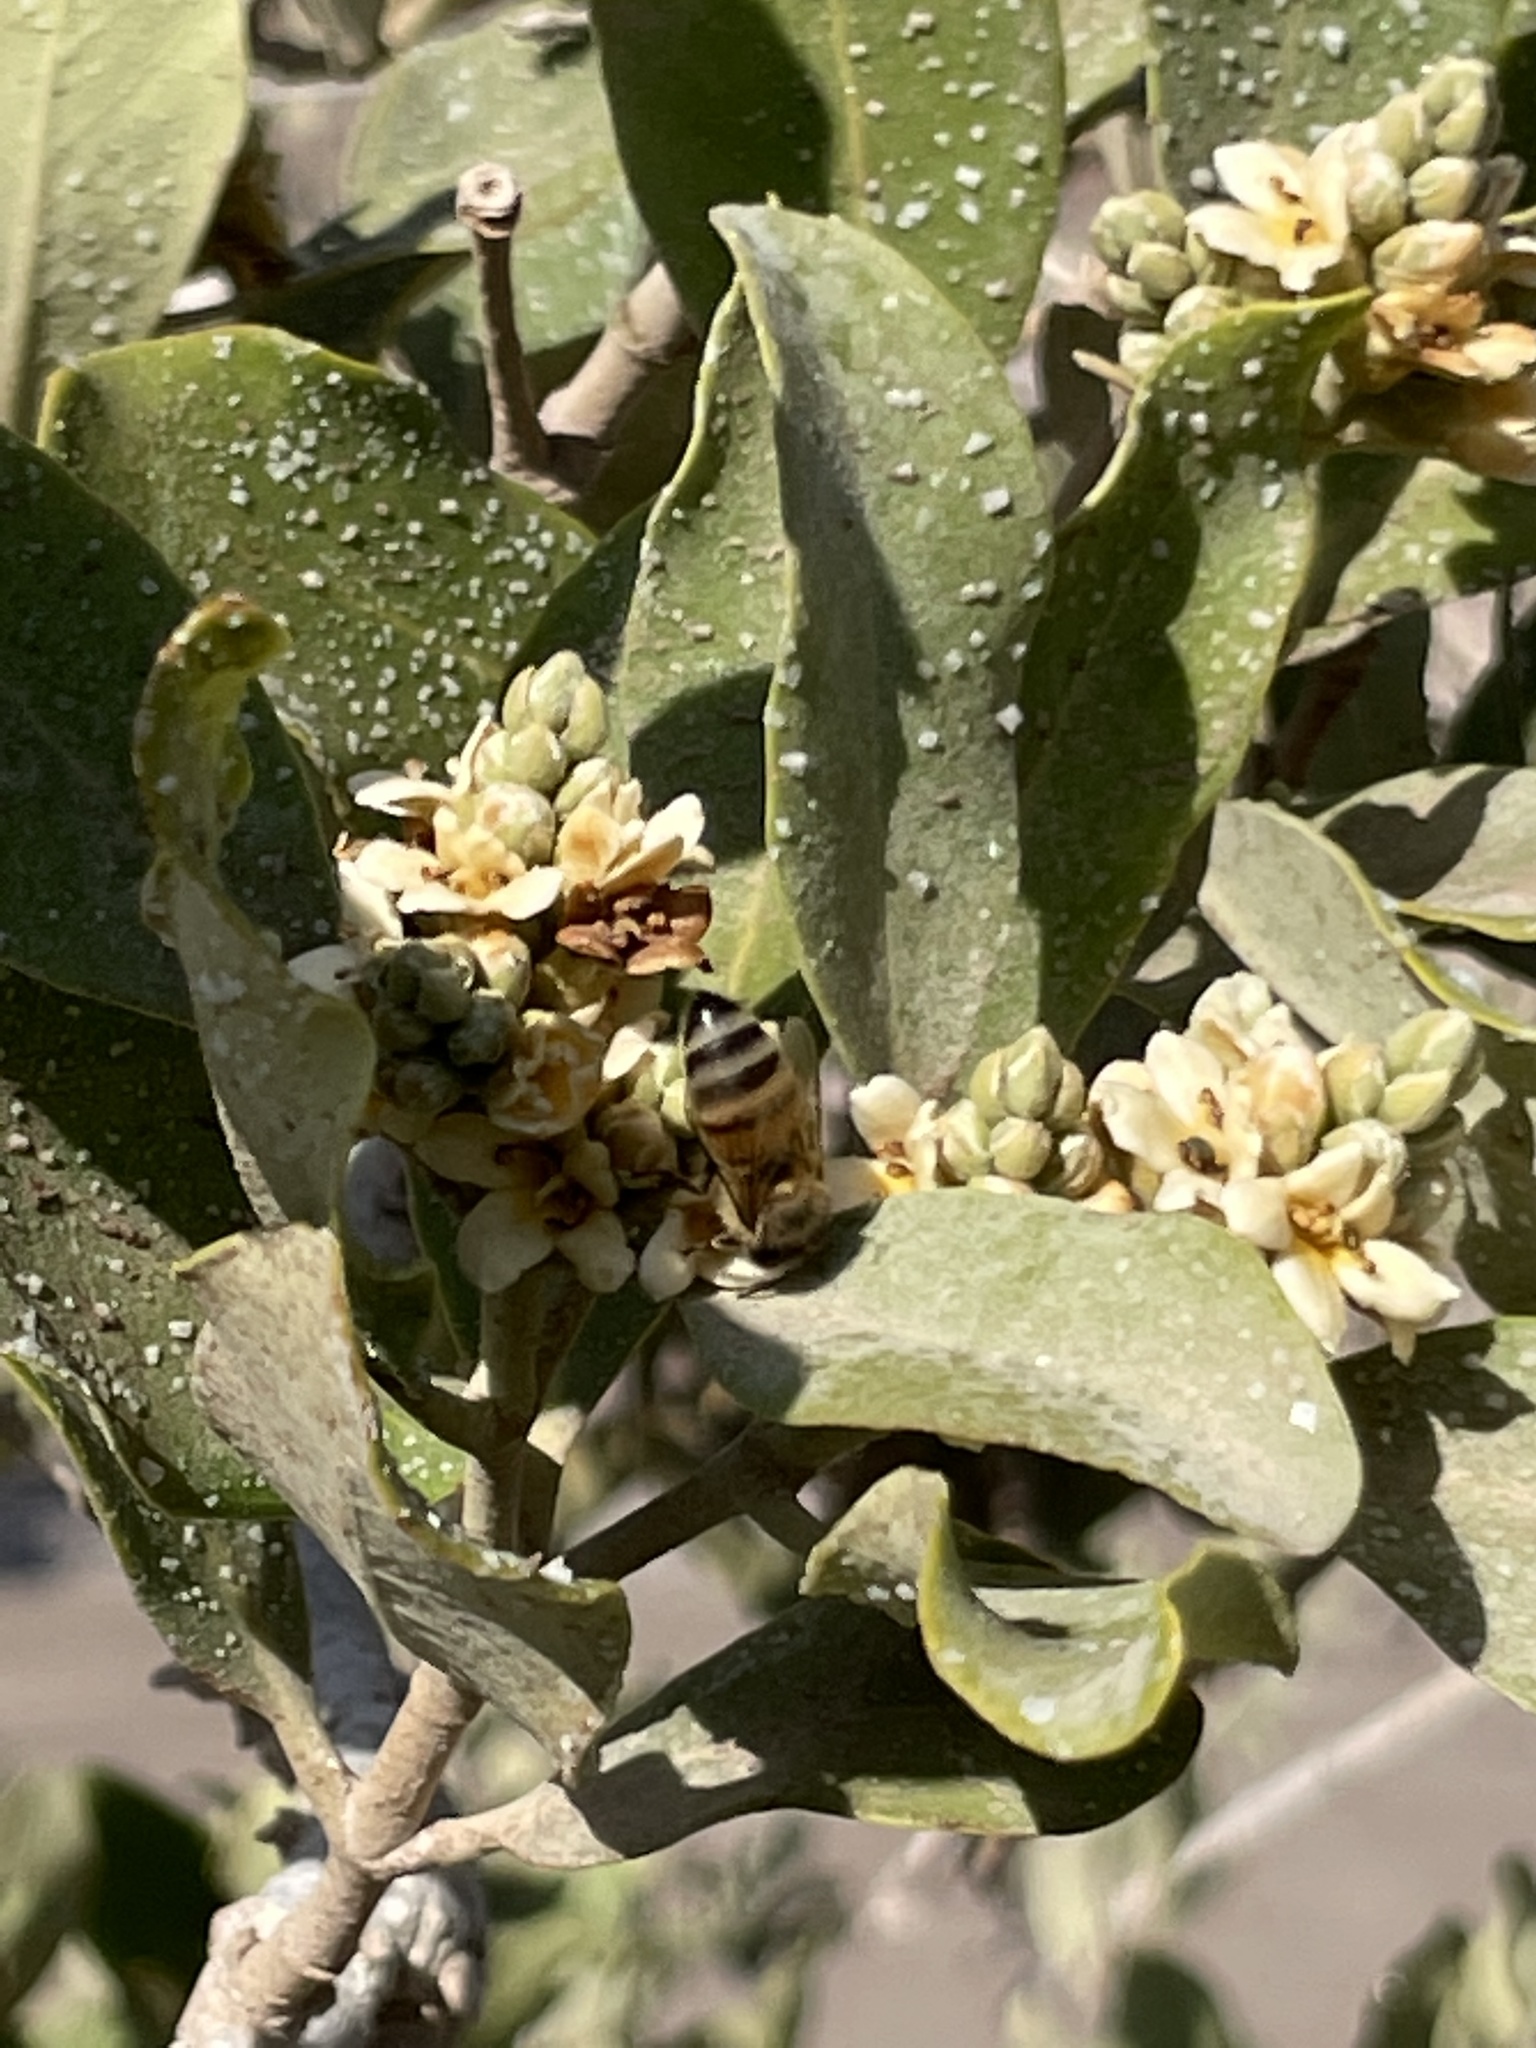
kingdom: Animalia
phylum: Arthropoda
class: Insecta
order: Hymenoptera
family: Apidae
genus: Apis
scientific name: Apis mellifera
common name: Honey bee
